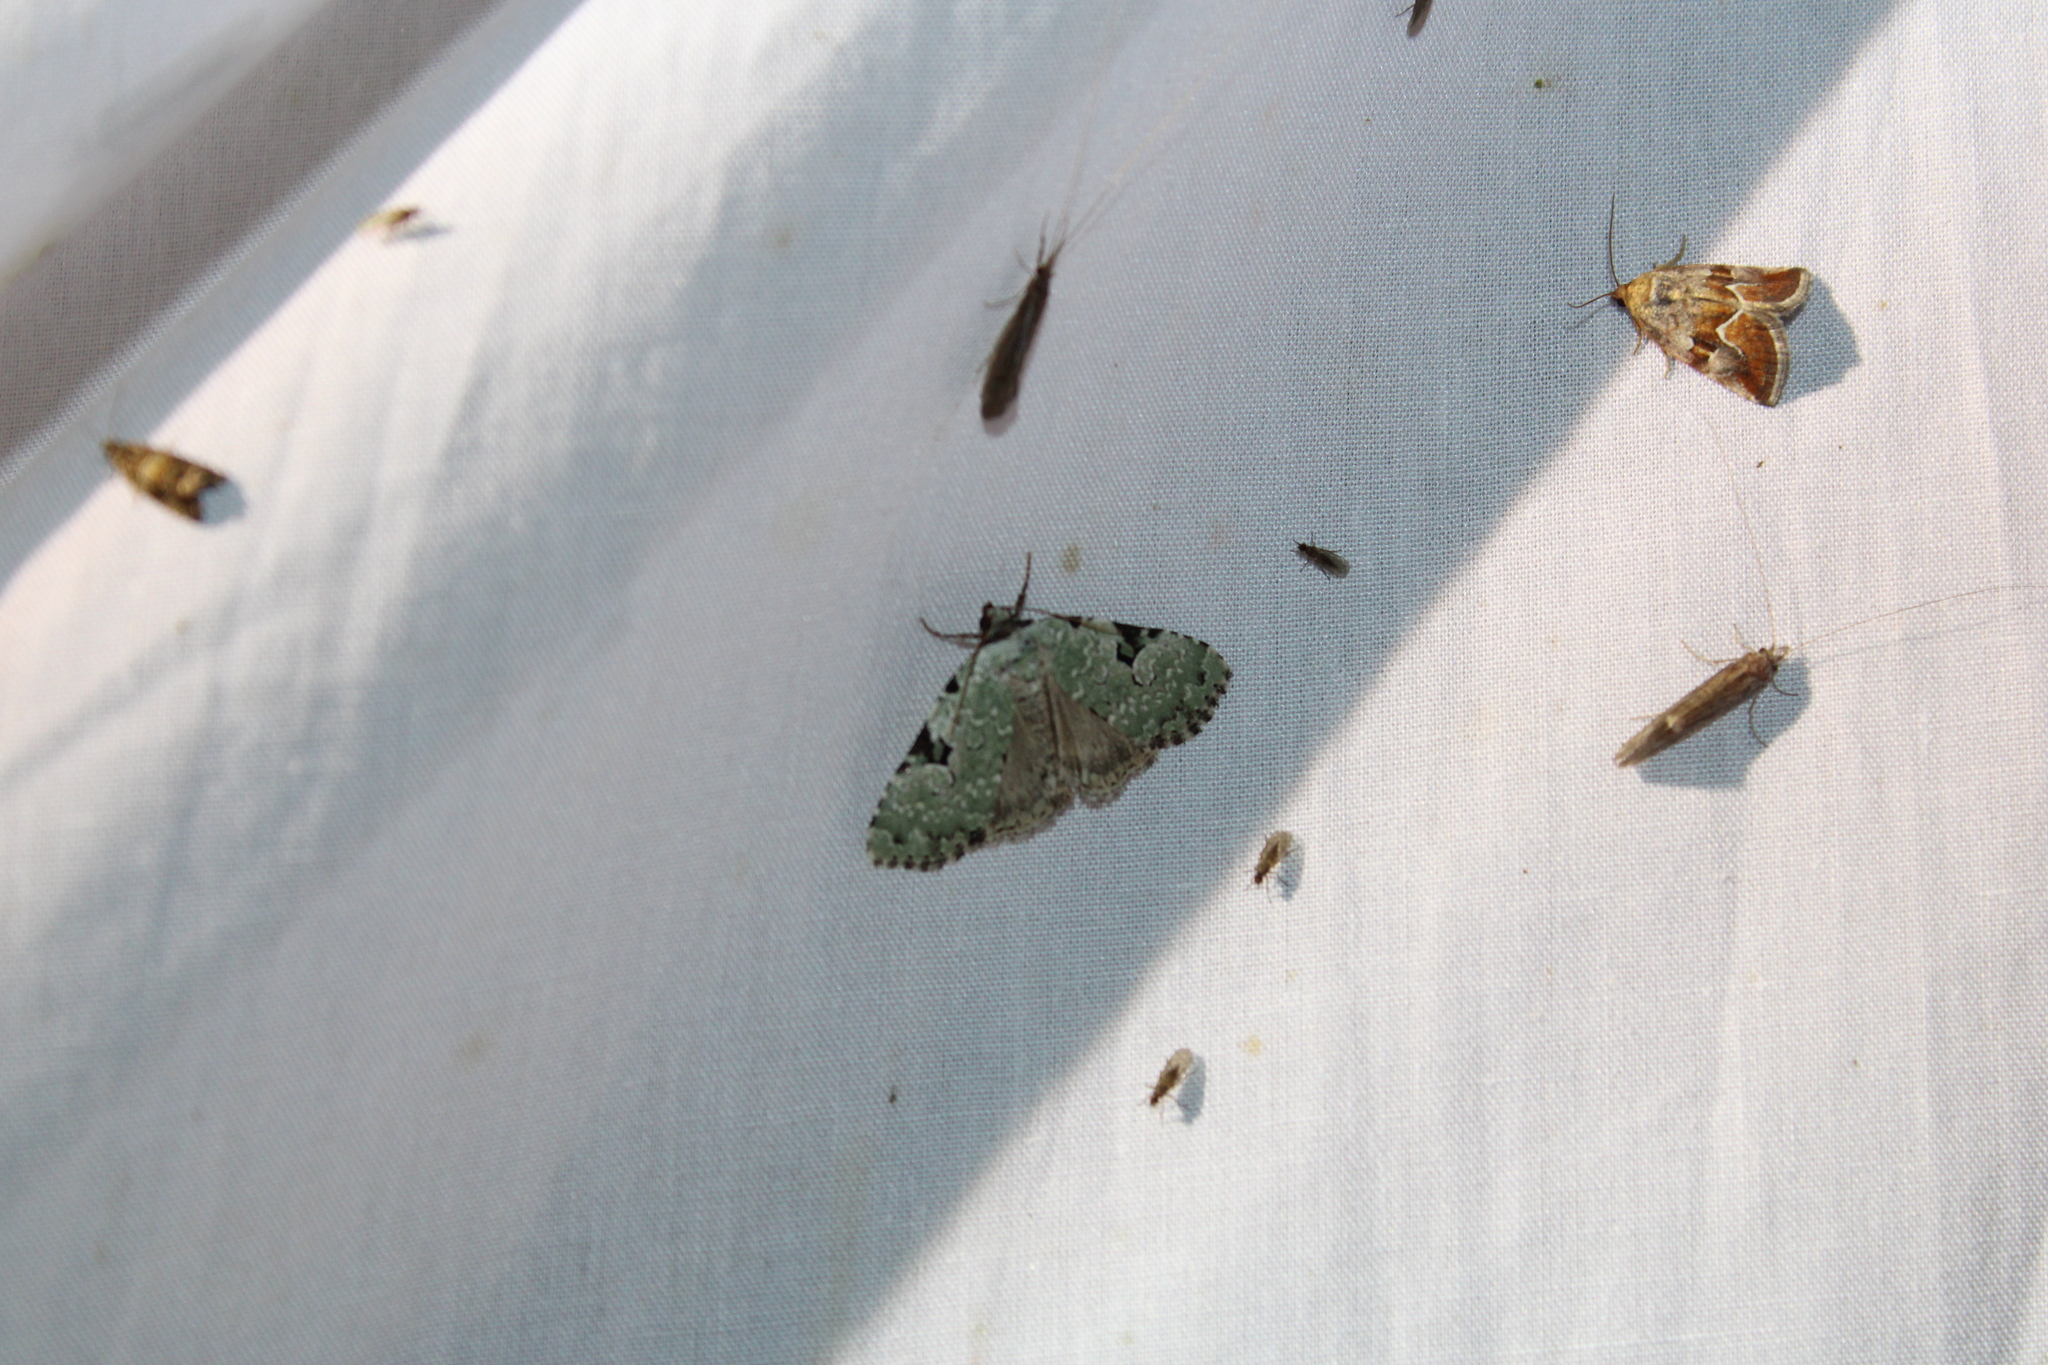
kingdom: Animalia
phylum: Arthropoda
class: Insecta
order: Lepidoptera
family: Noctuidae
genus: Leuconycta
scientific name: Leuconycta diphteroides
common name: Green leuconycta moth
